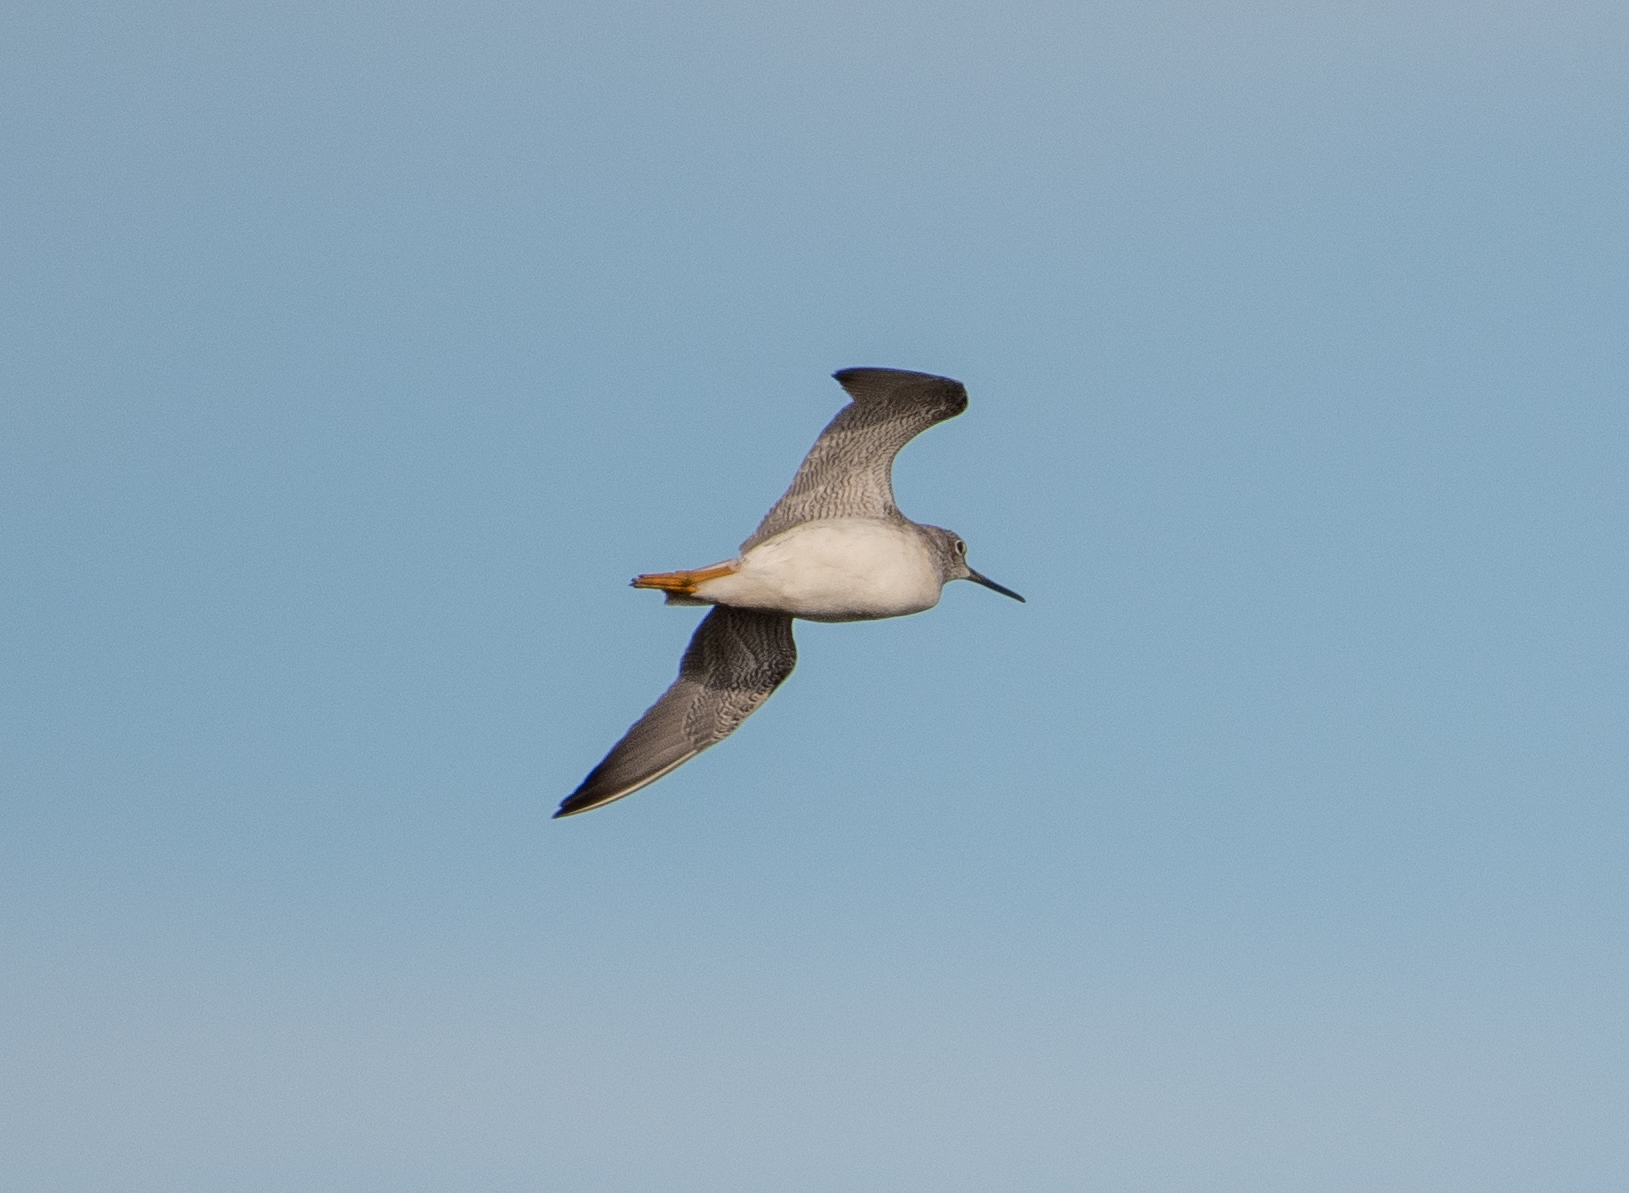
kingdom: Animalia
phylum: Chordata
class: Aves
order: Charadriiformes
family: Scolopacidae
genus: Tringa
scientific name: Tringa melanoleuca
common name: Greater yellowlegs
